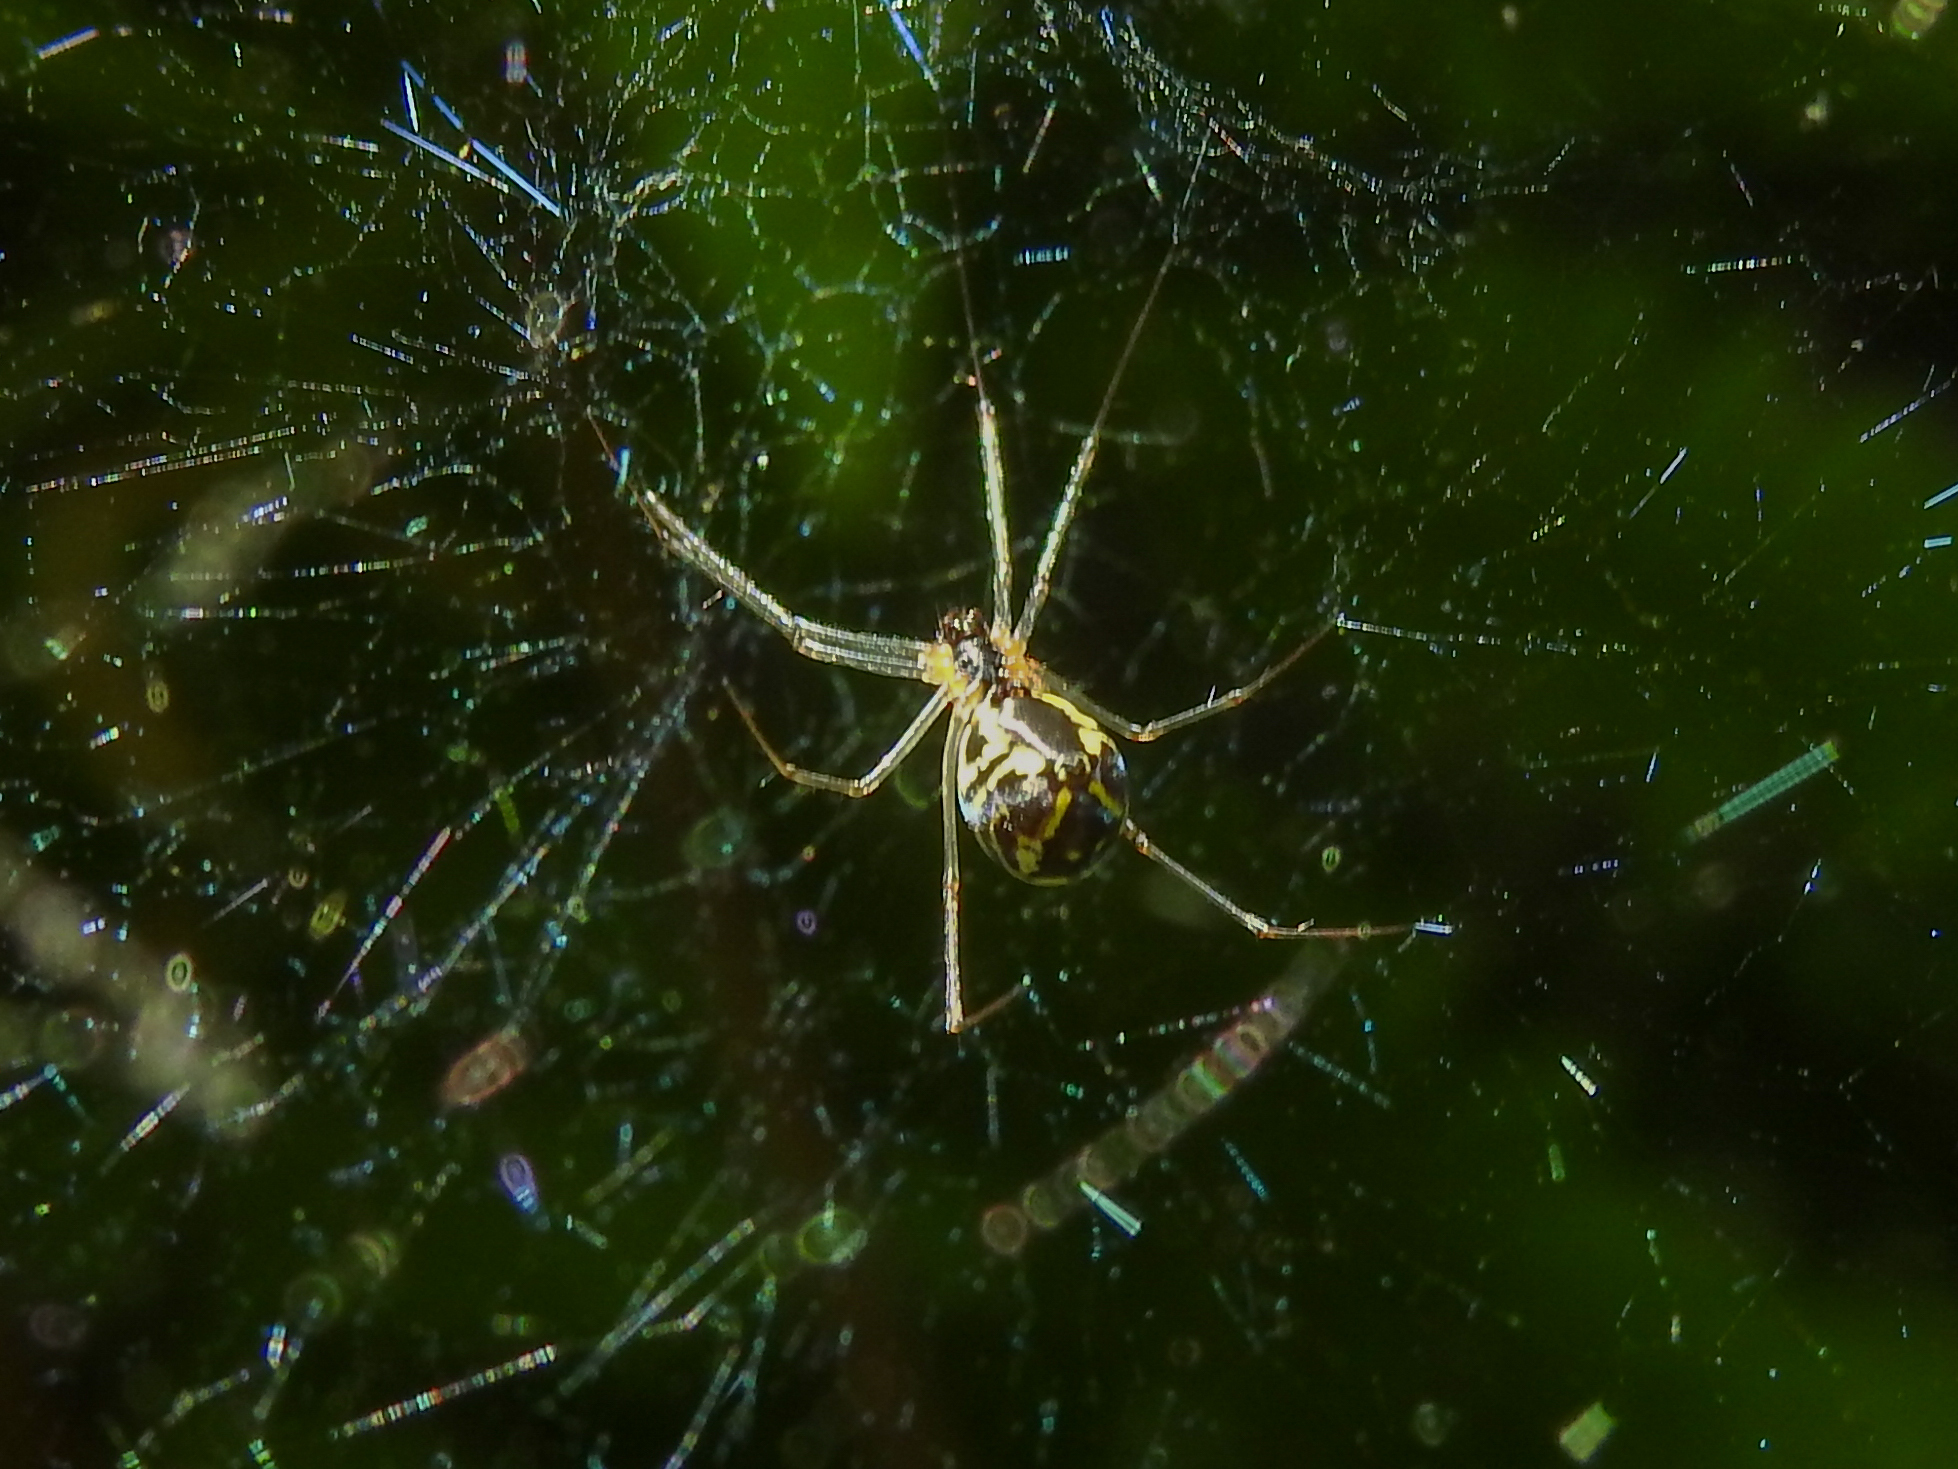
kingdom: Animalia
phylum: Arthropoda
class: Arachnida
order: Araneae
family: Linyphiidae
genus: Neriene
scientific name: Neriene radiata
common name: Filmy dome spider
